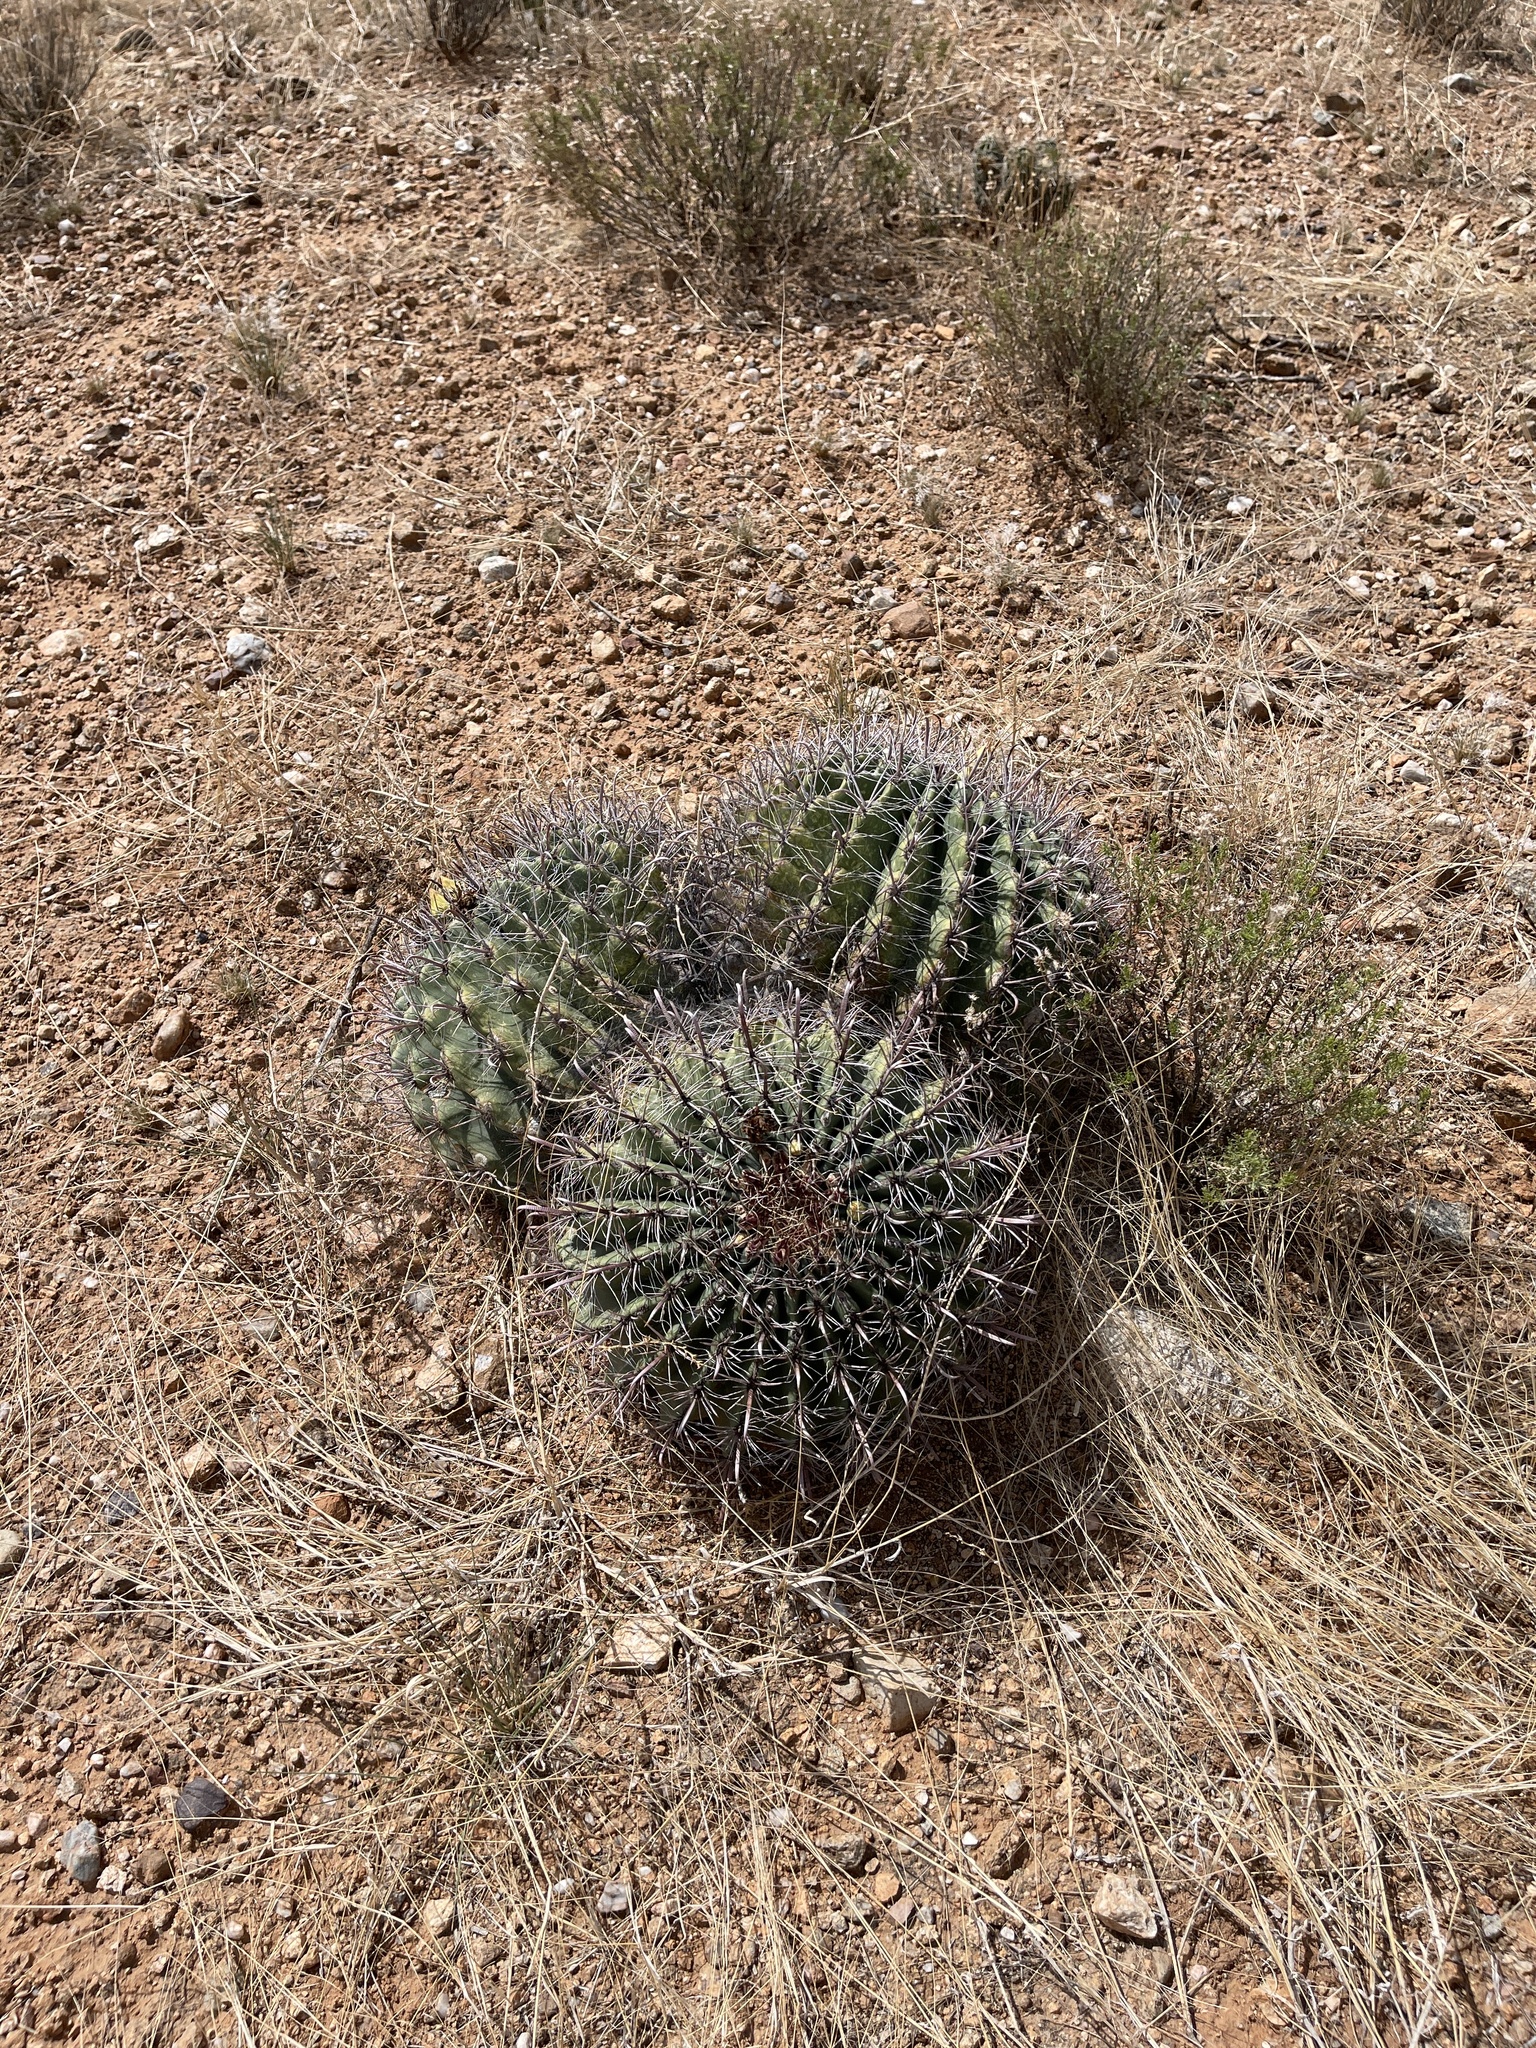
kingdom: Plantae
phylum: Tracheophyta
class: Magnoliopsida
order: Caryophyllales
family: Cactaceae
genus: Ferocactus
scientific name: Ferocactus wislizeni
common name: Candy barrel cactus
